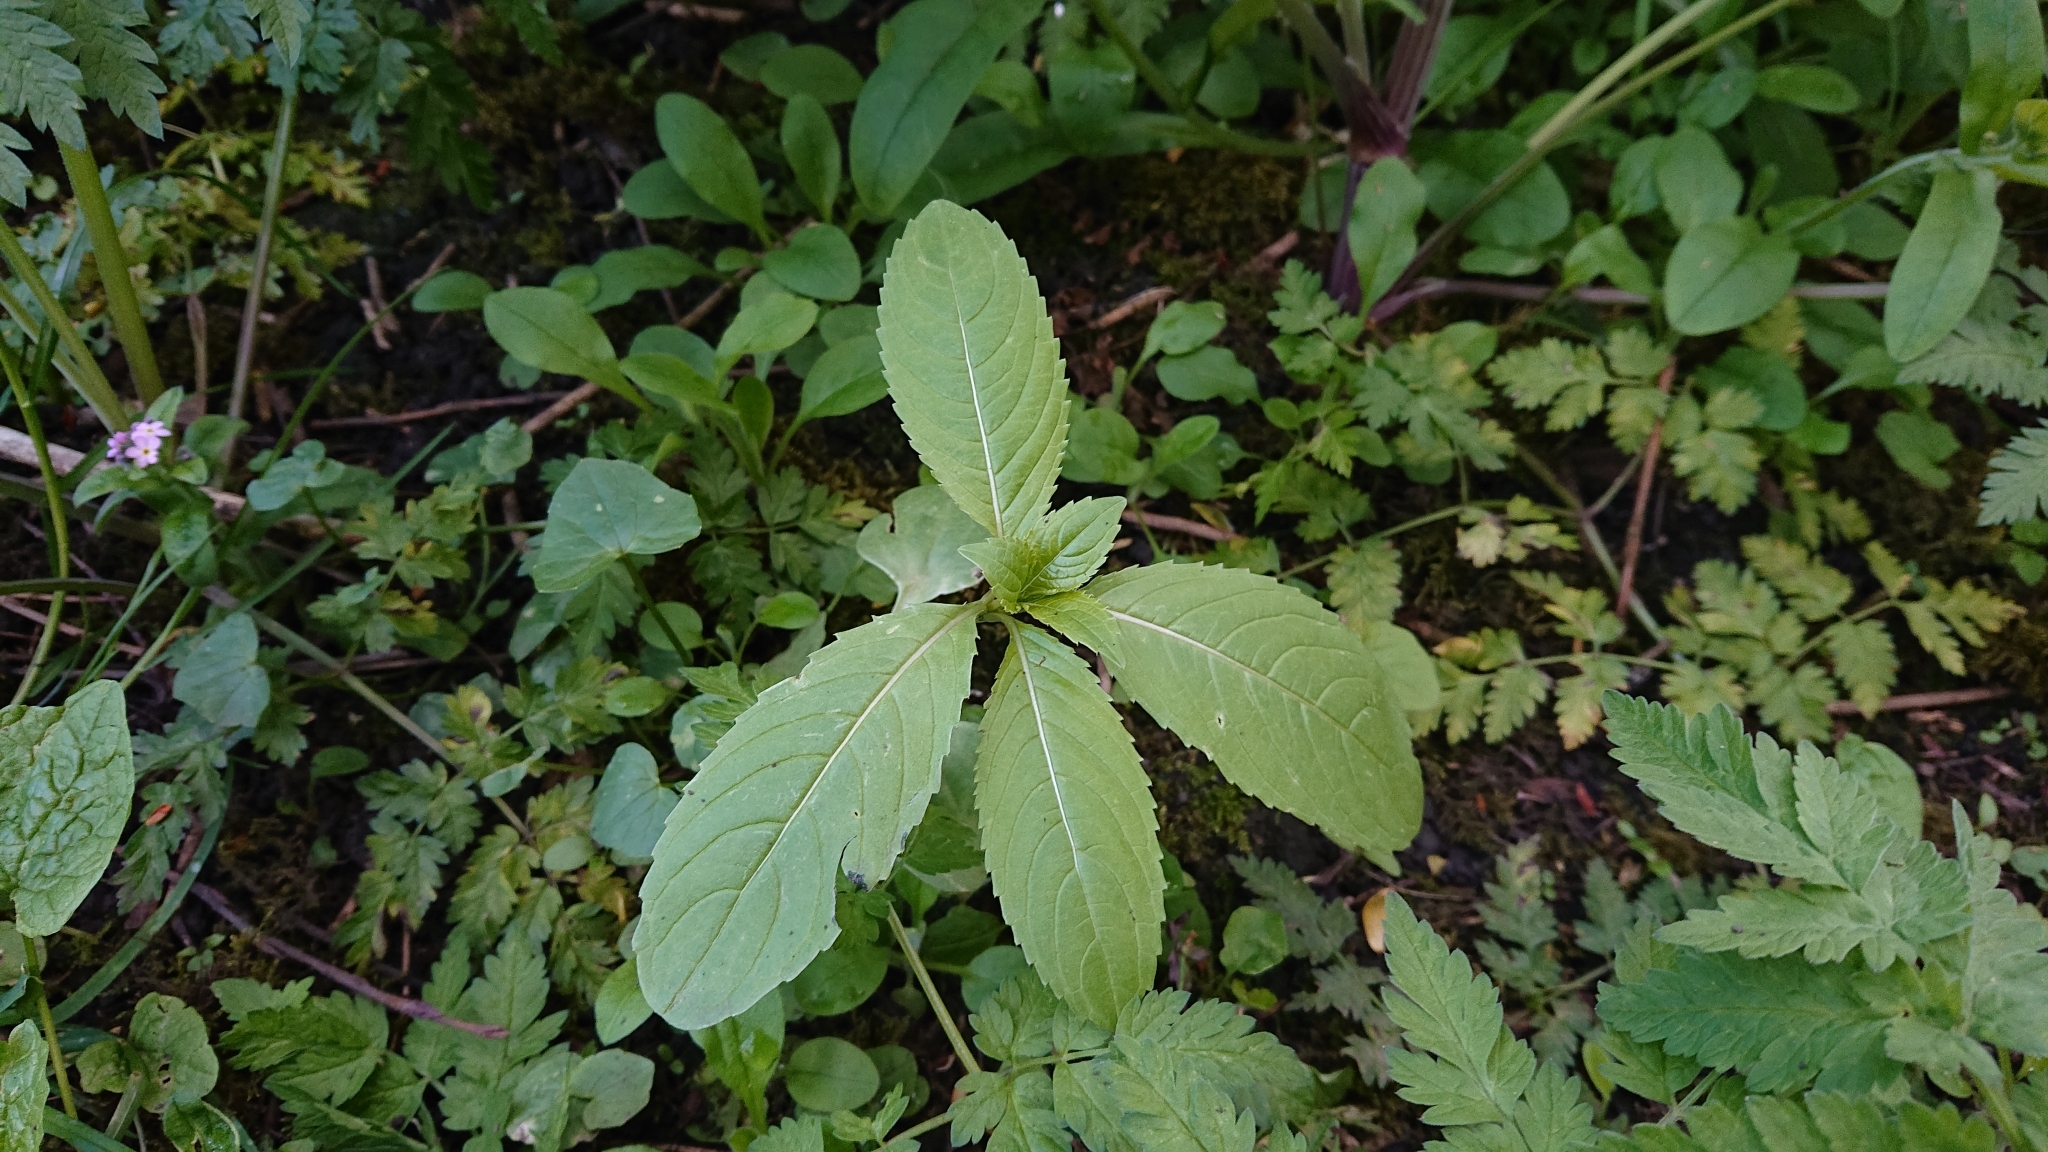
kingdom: Plantae
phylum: Tracheophyta
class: Magnoliopsida
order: Ericales
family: Balsaminaceae
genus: Impatiens
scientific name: Impatiens glandulifera
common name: Himalayan balsam
